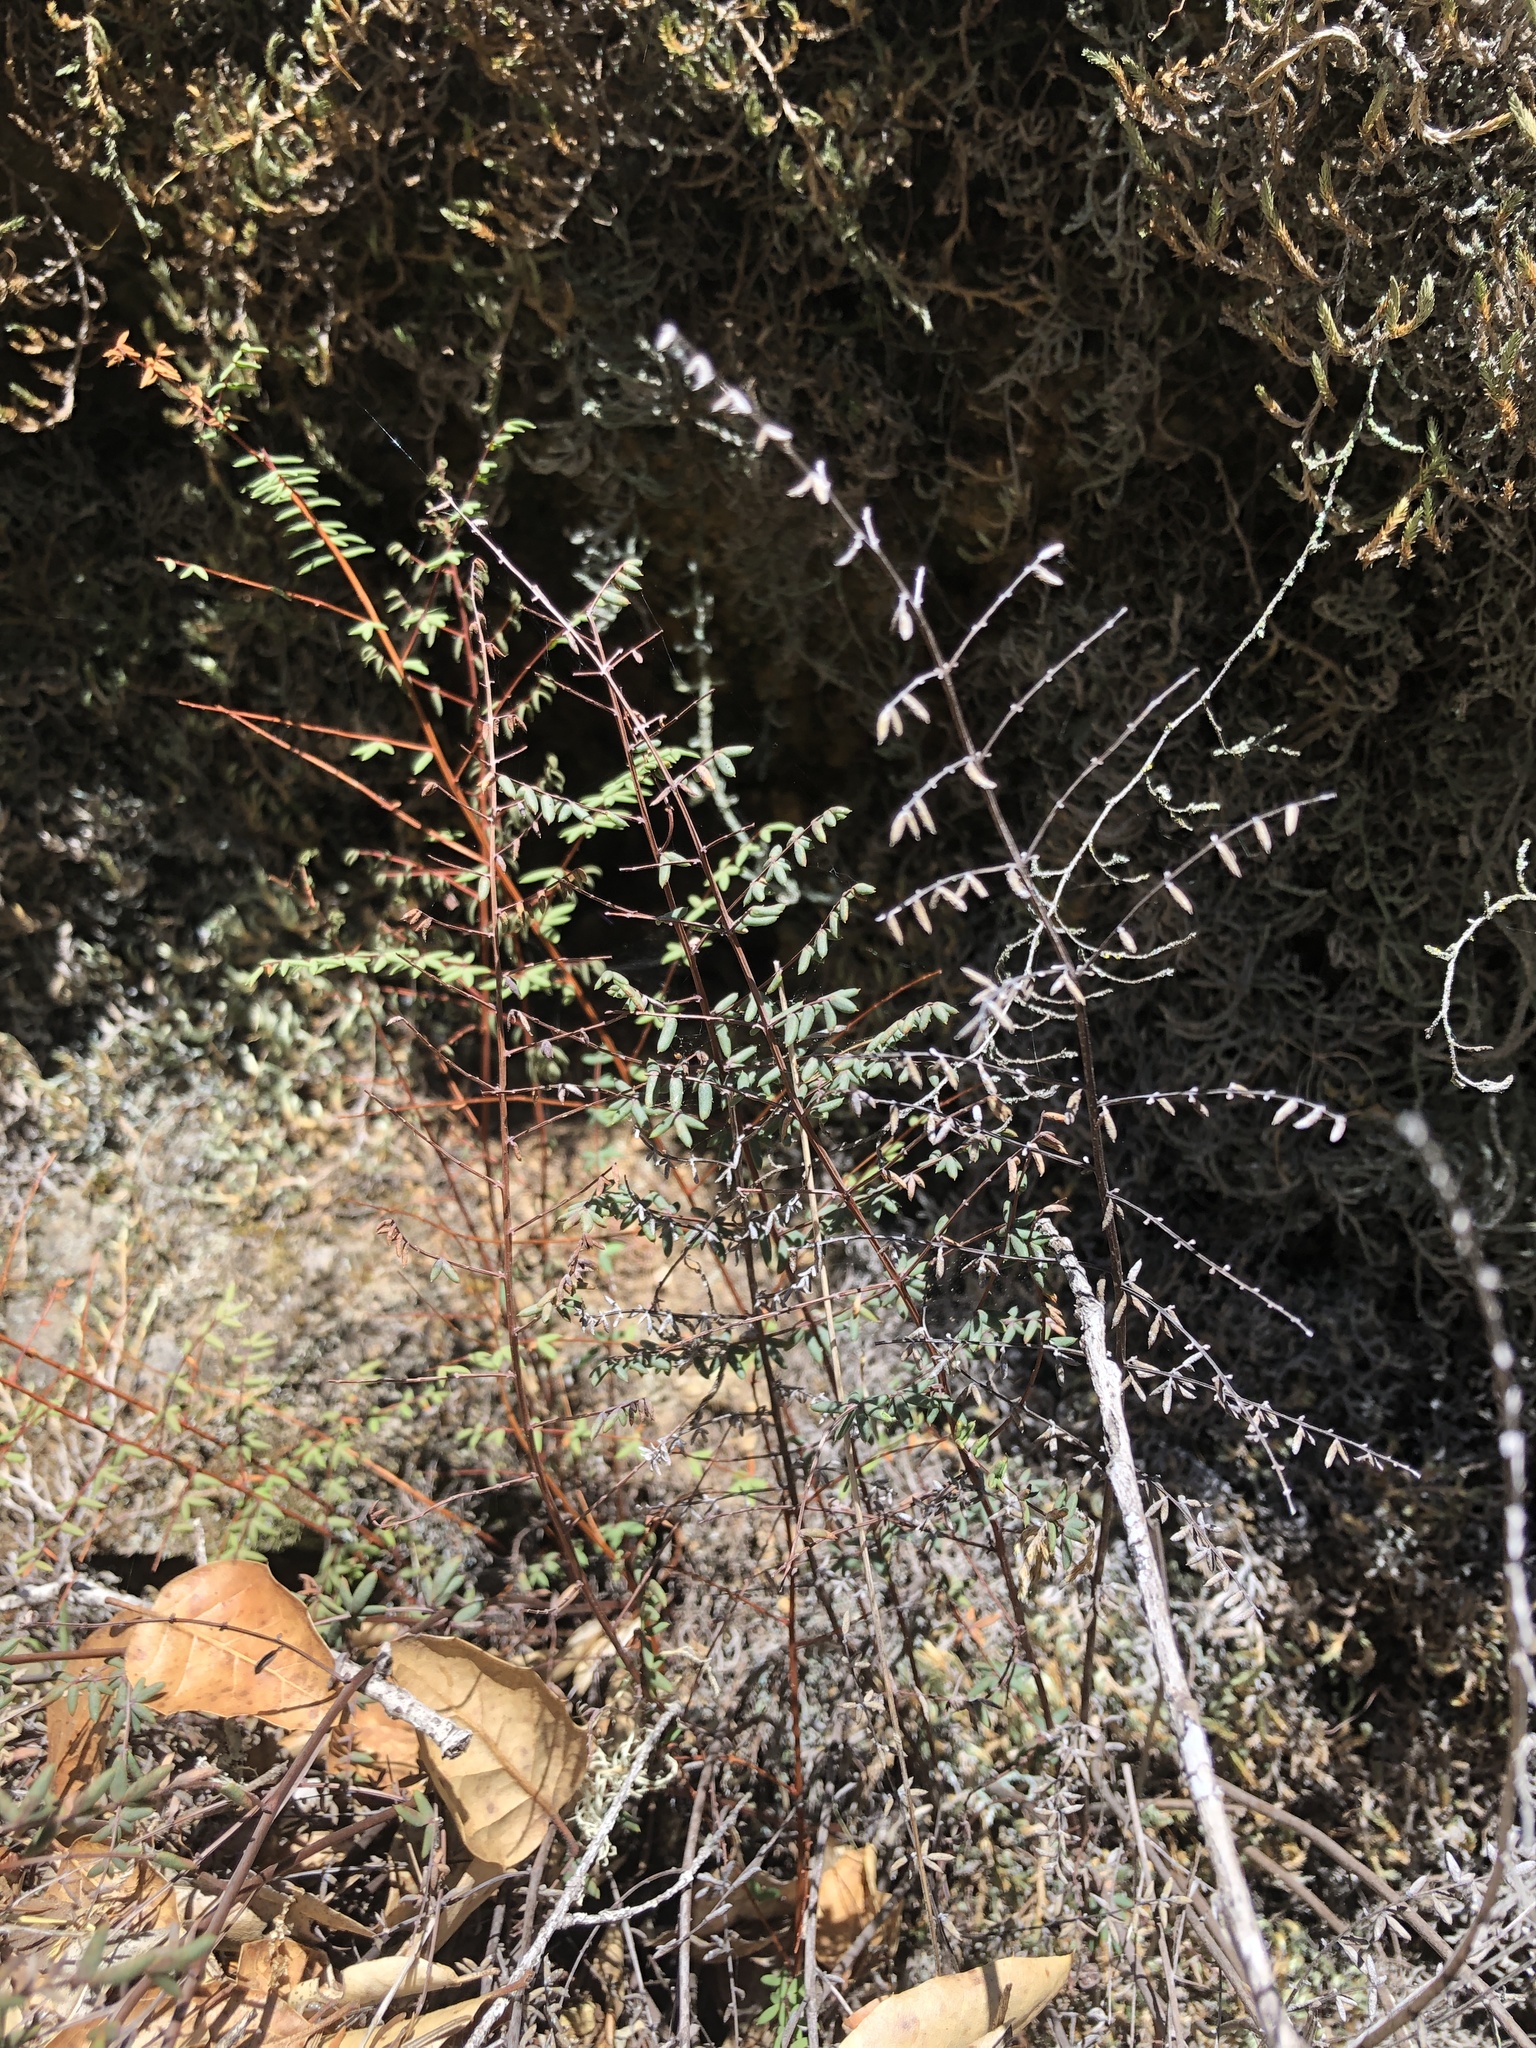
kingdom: Plantae
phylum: Tracheophyta
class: Polypodiopsida
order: Polypodiales
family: Pteridaceae
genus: Pellaea
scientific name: Pellaea mucronata
